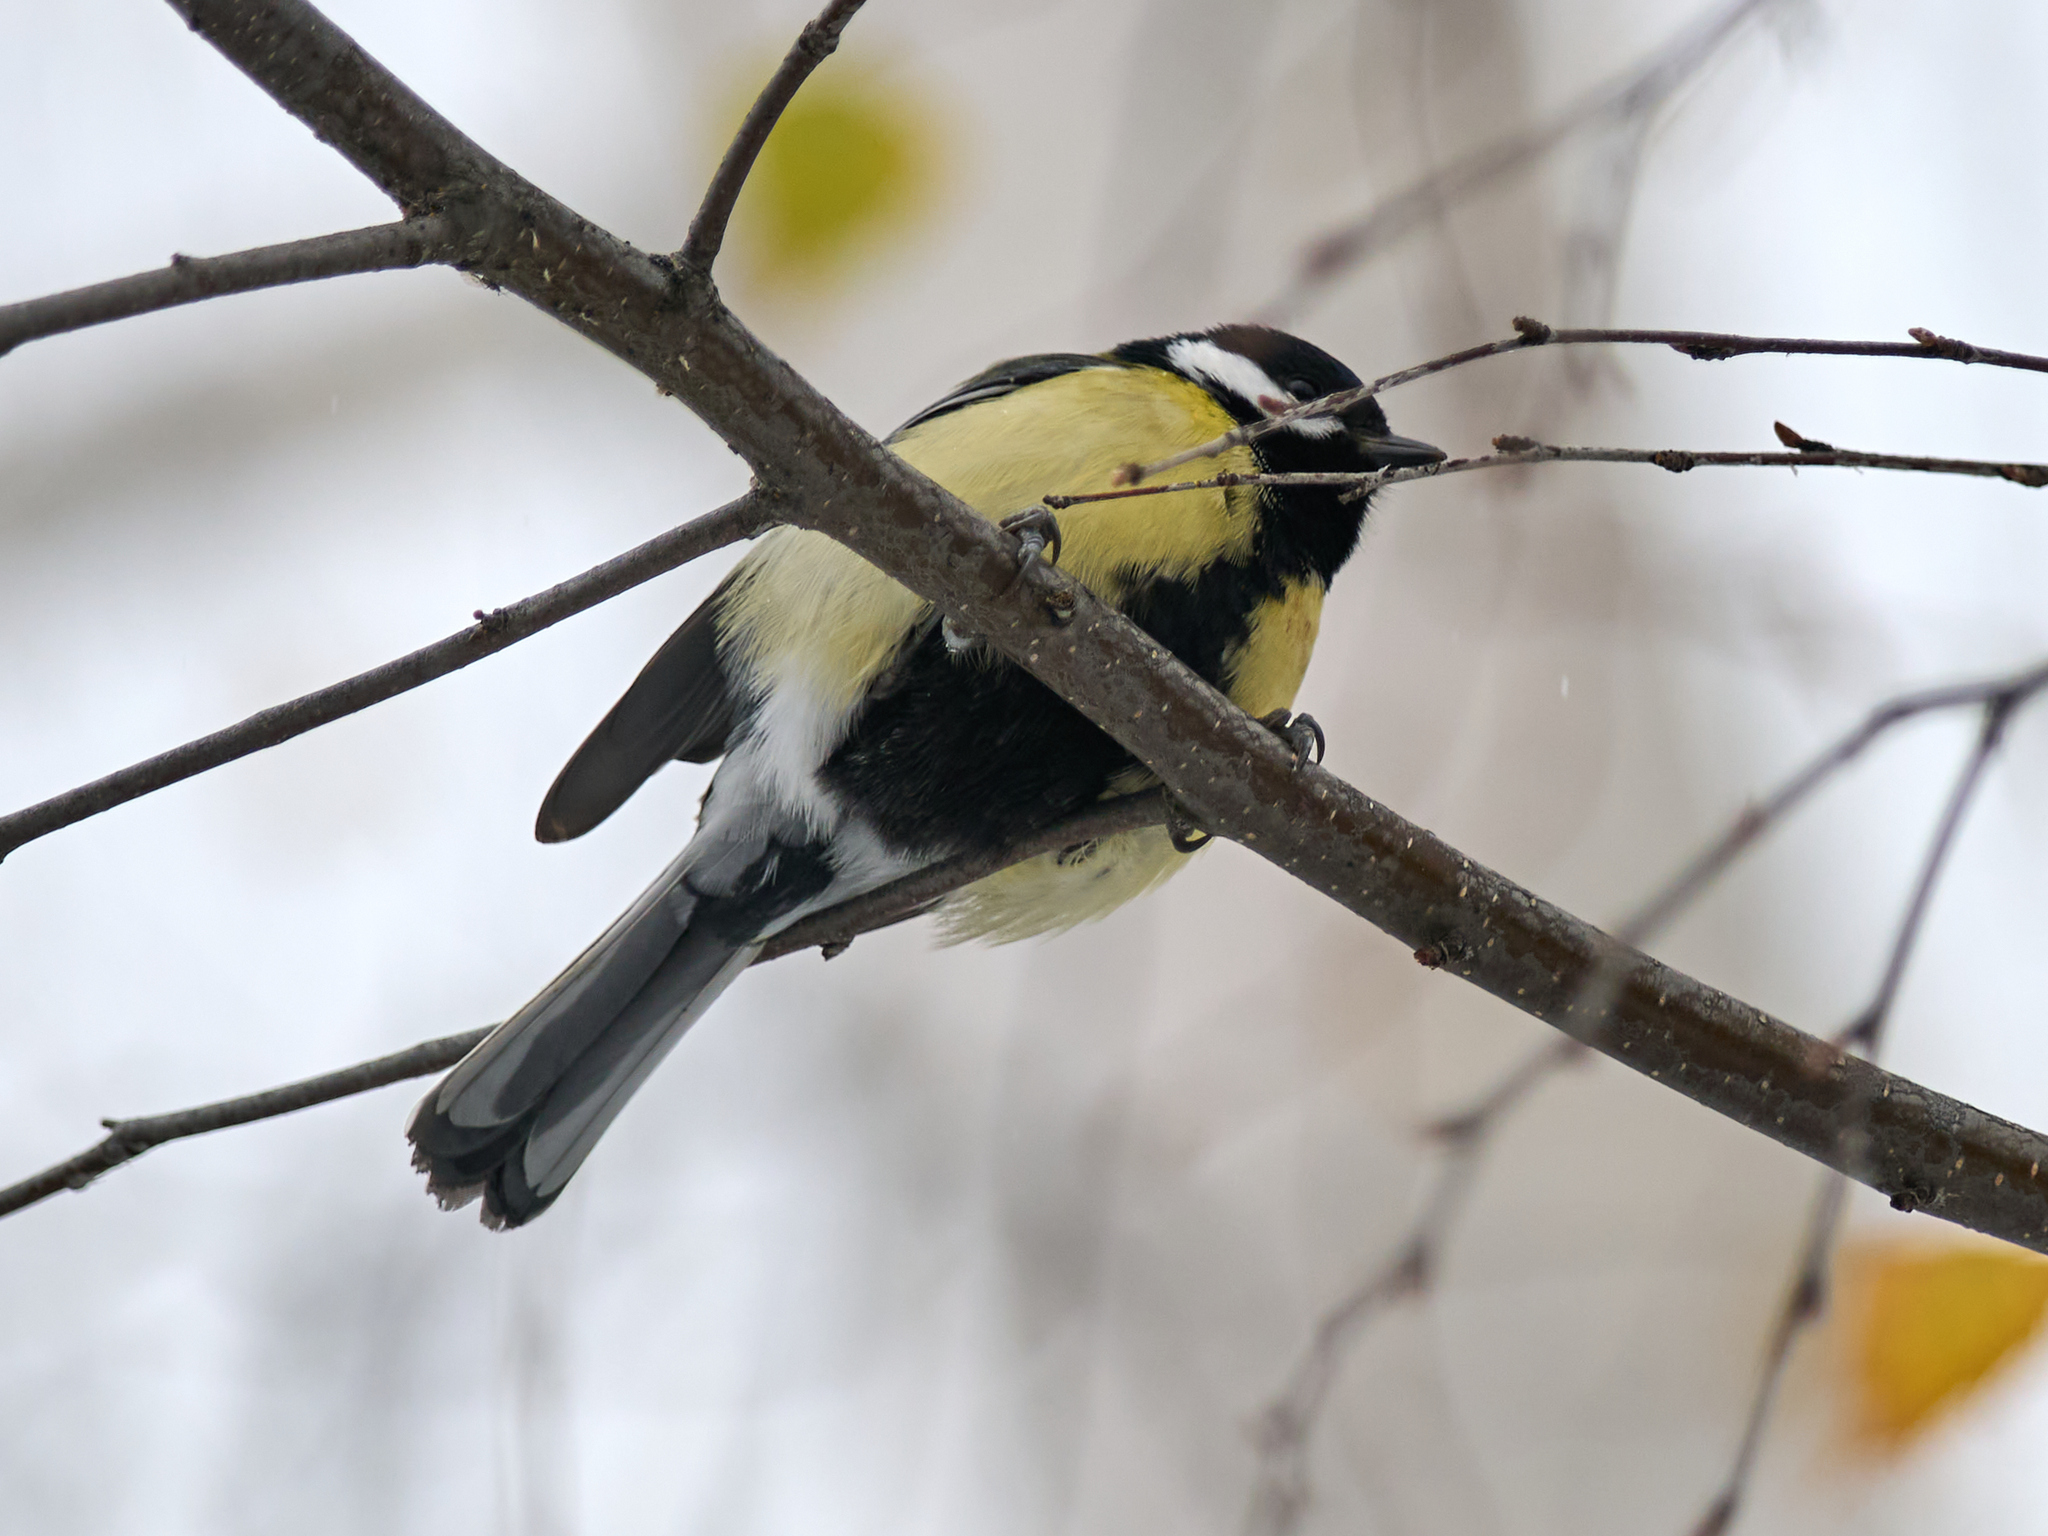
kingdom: Animalia
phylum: Chordata
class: Aves
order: Passeriformes
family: Paridae
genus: Parus
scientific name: Parus major
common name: Great tit
